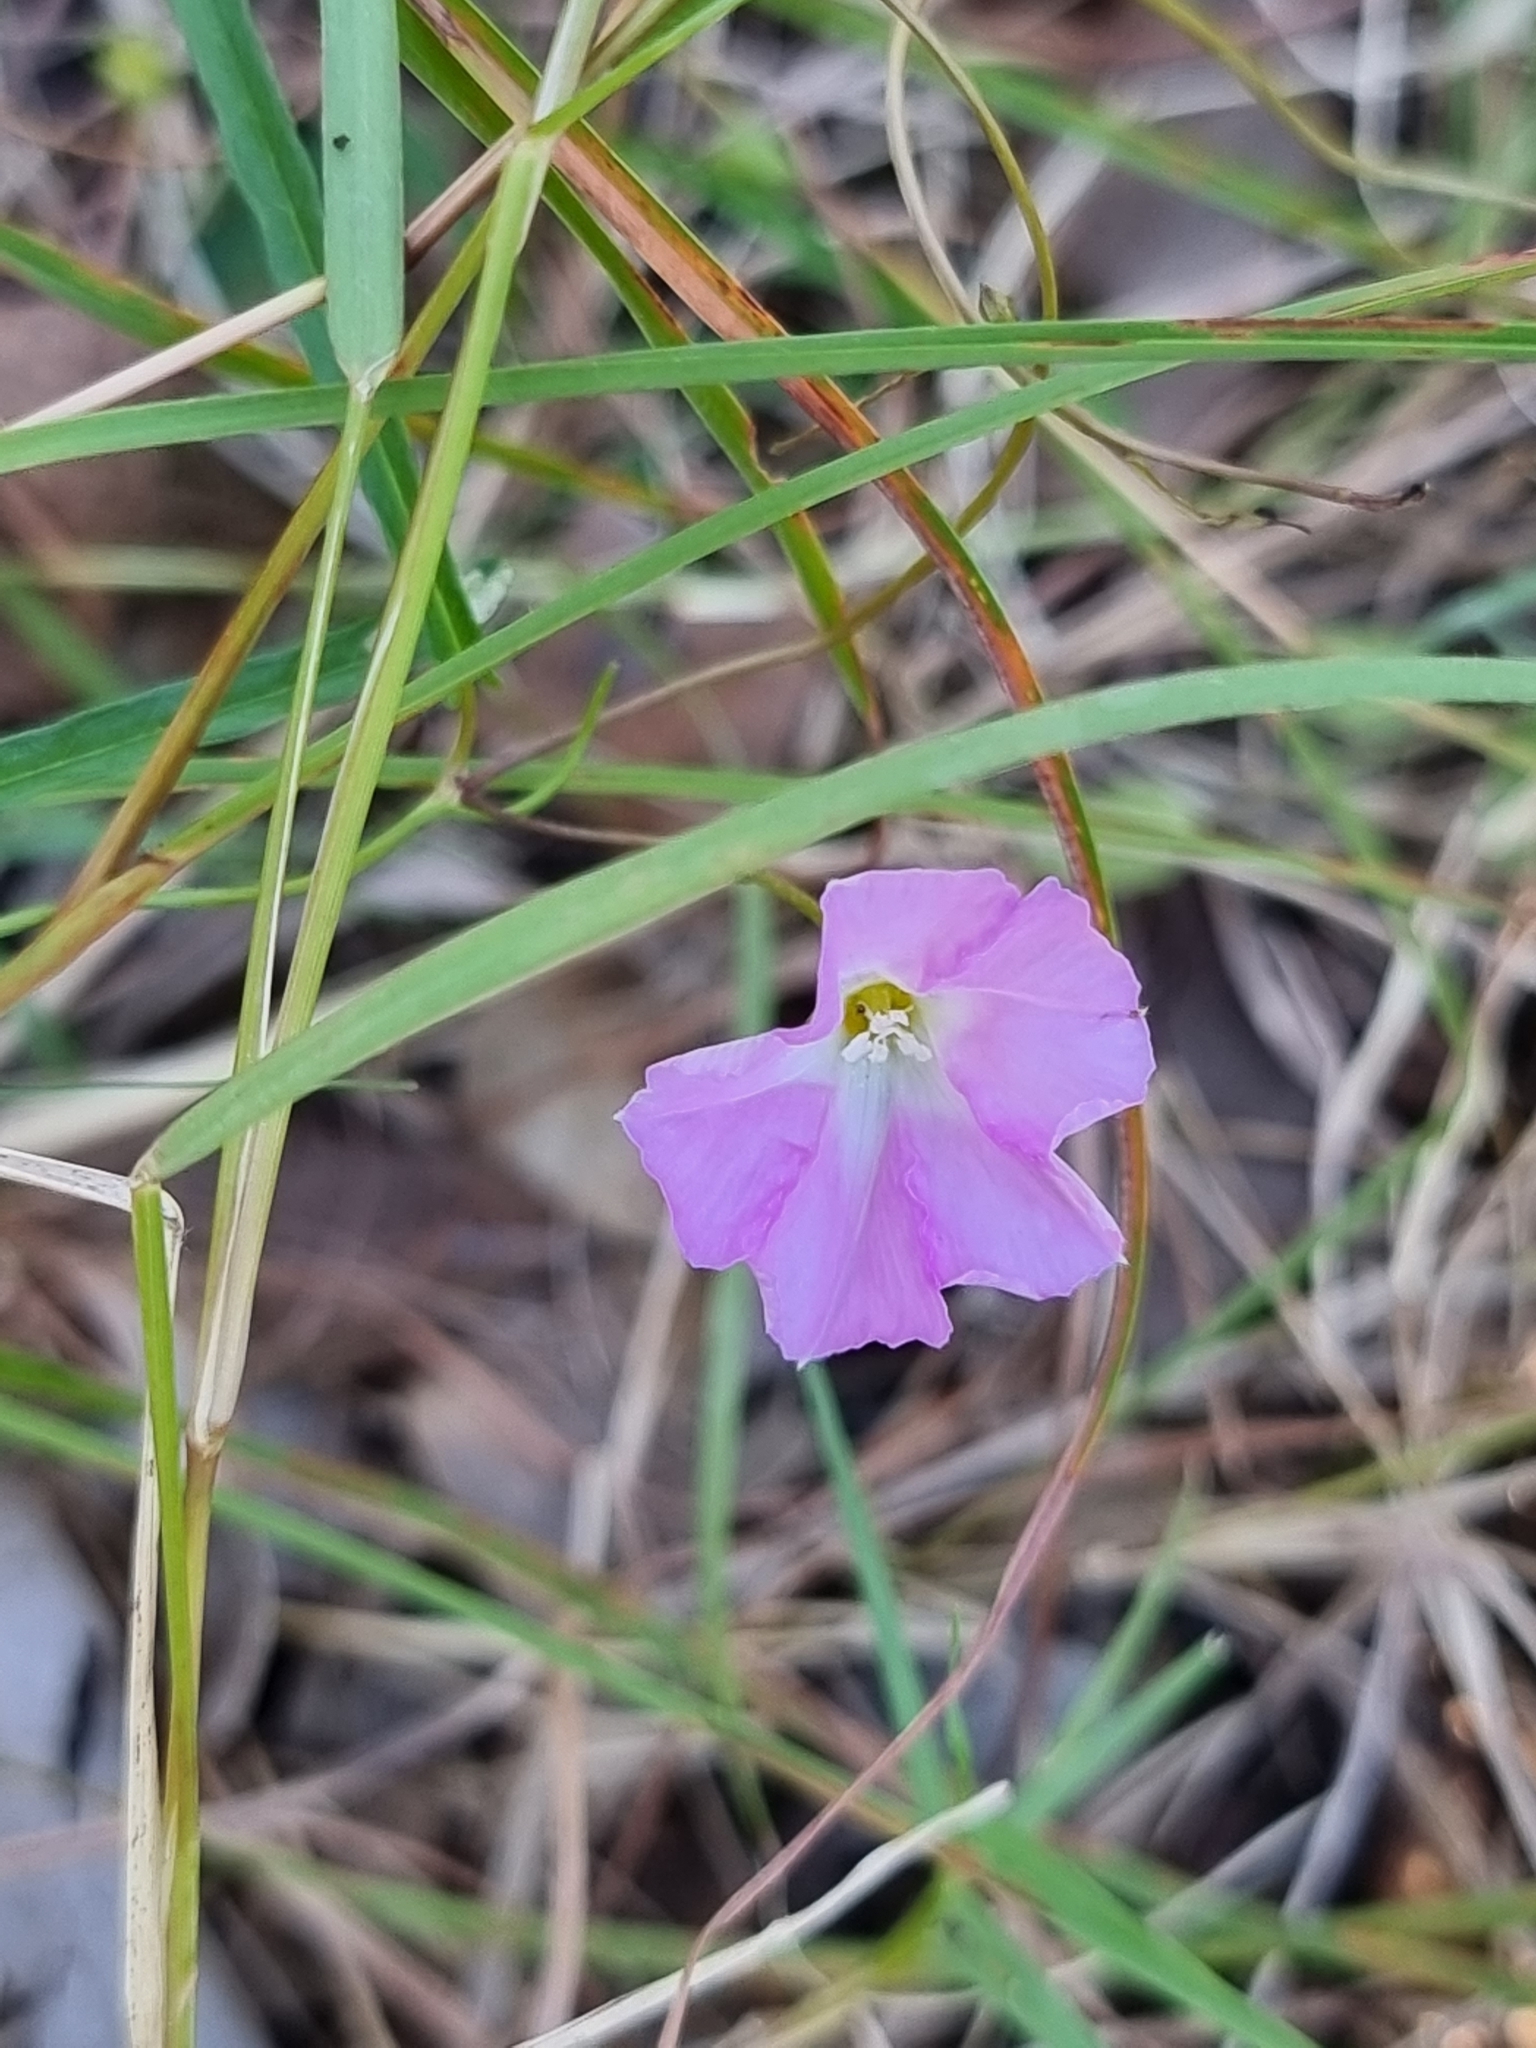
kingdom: Plantae
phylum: Tracheophyta
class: Magnoliopsida
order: Solanales
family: Convolvulaceae
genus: Polymeria
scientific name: Polymeria calycina
